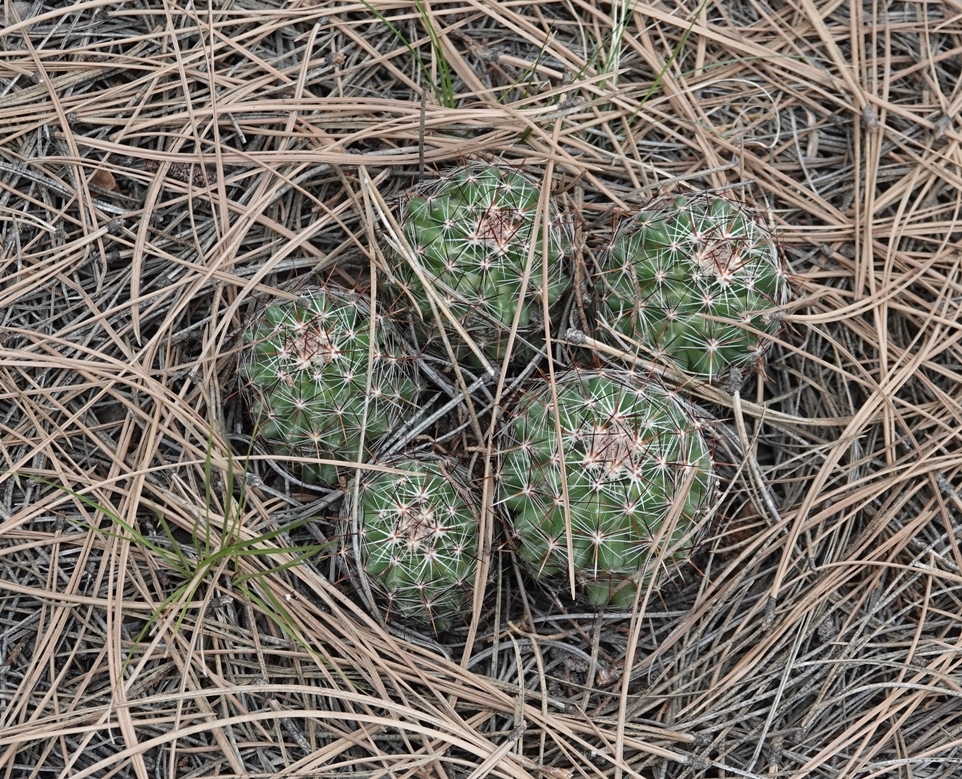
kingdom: Plantae
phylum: Tracheophyta
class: Magnoliopsida
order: Caryophyllales
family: Cactaceae
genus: Pelecyphora
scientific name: Pelecyphora vivipara
